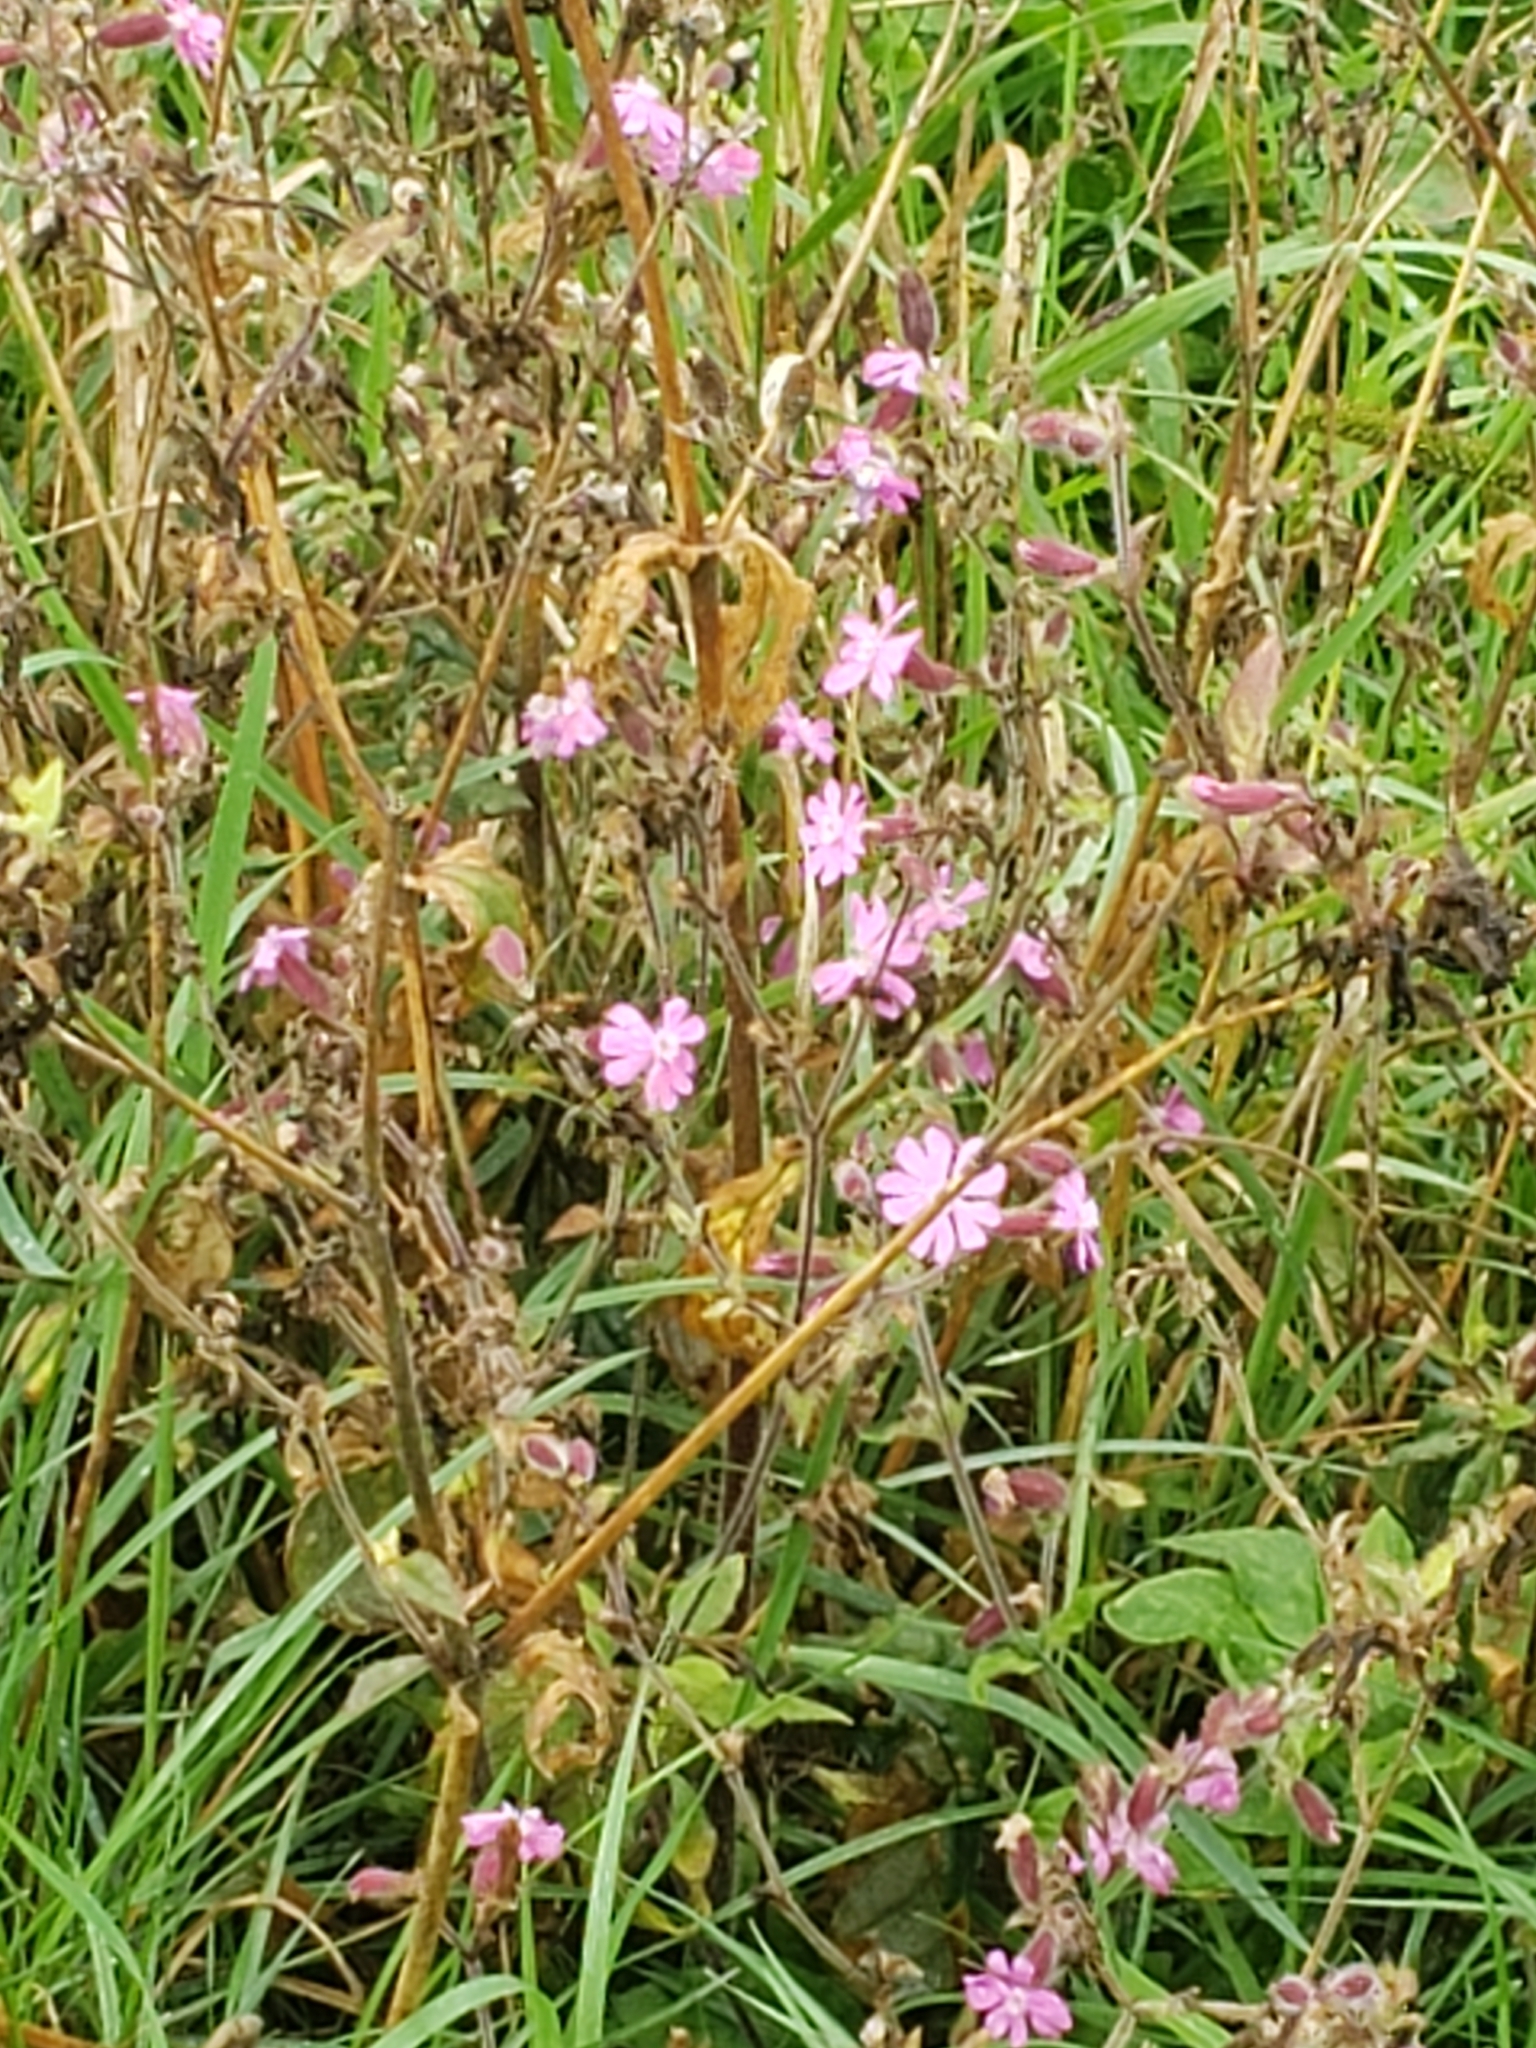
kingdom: Plantae
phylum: Tracheophyta
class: Magnoliopsida
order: Caryophyllales
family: Caryophyllaceae
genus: Silene
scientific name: Silene dioica
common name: Red campion
